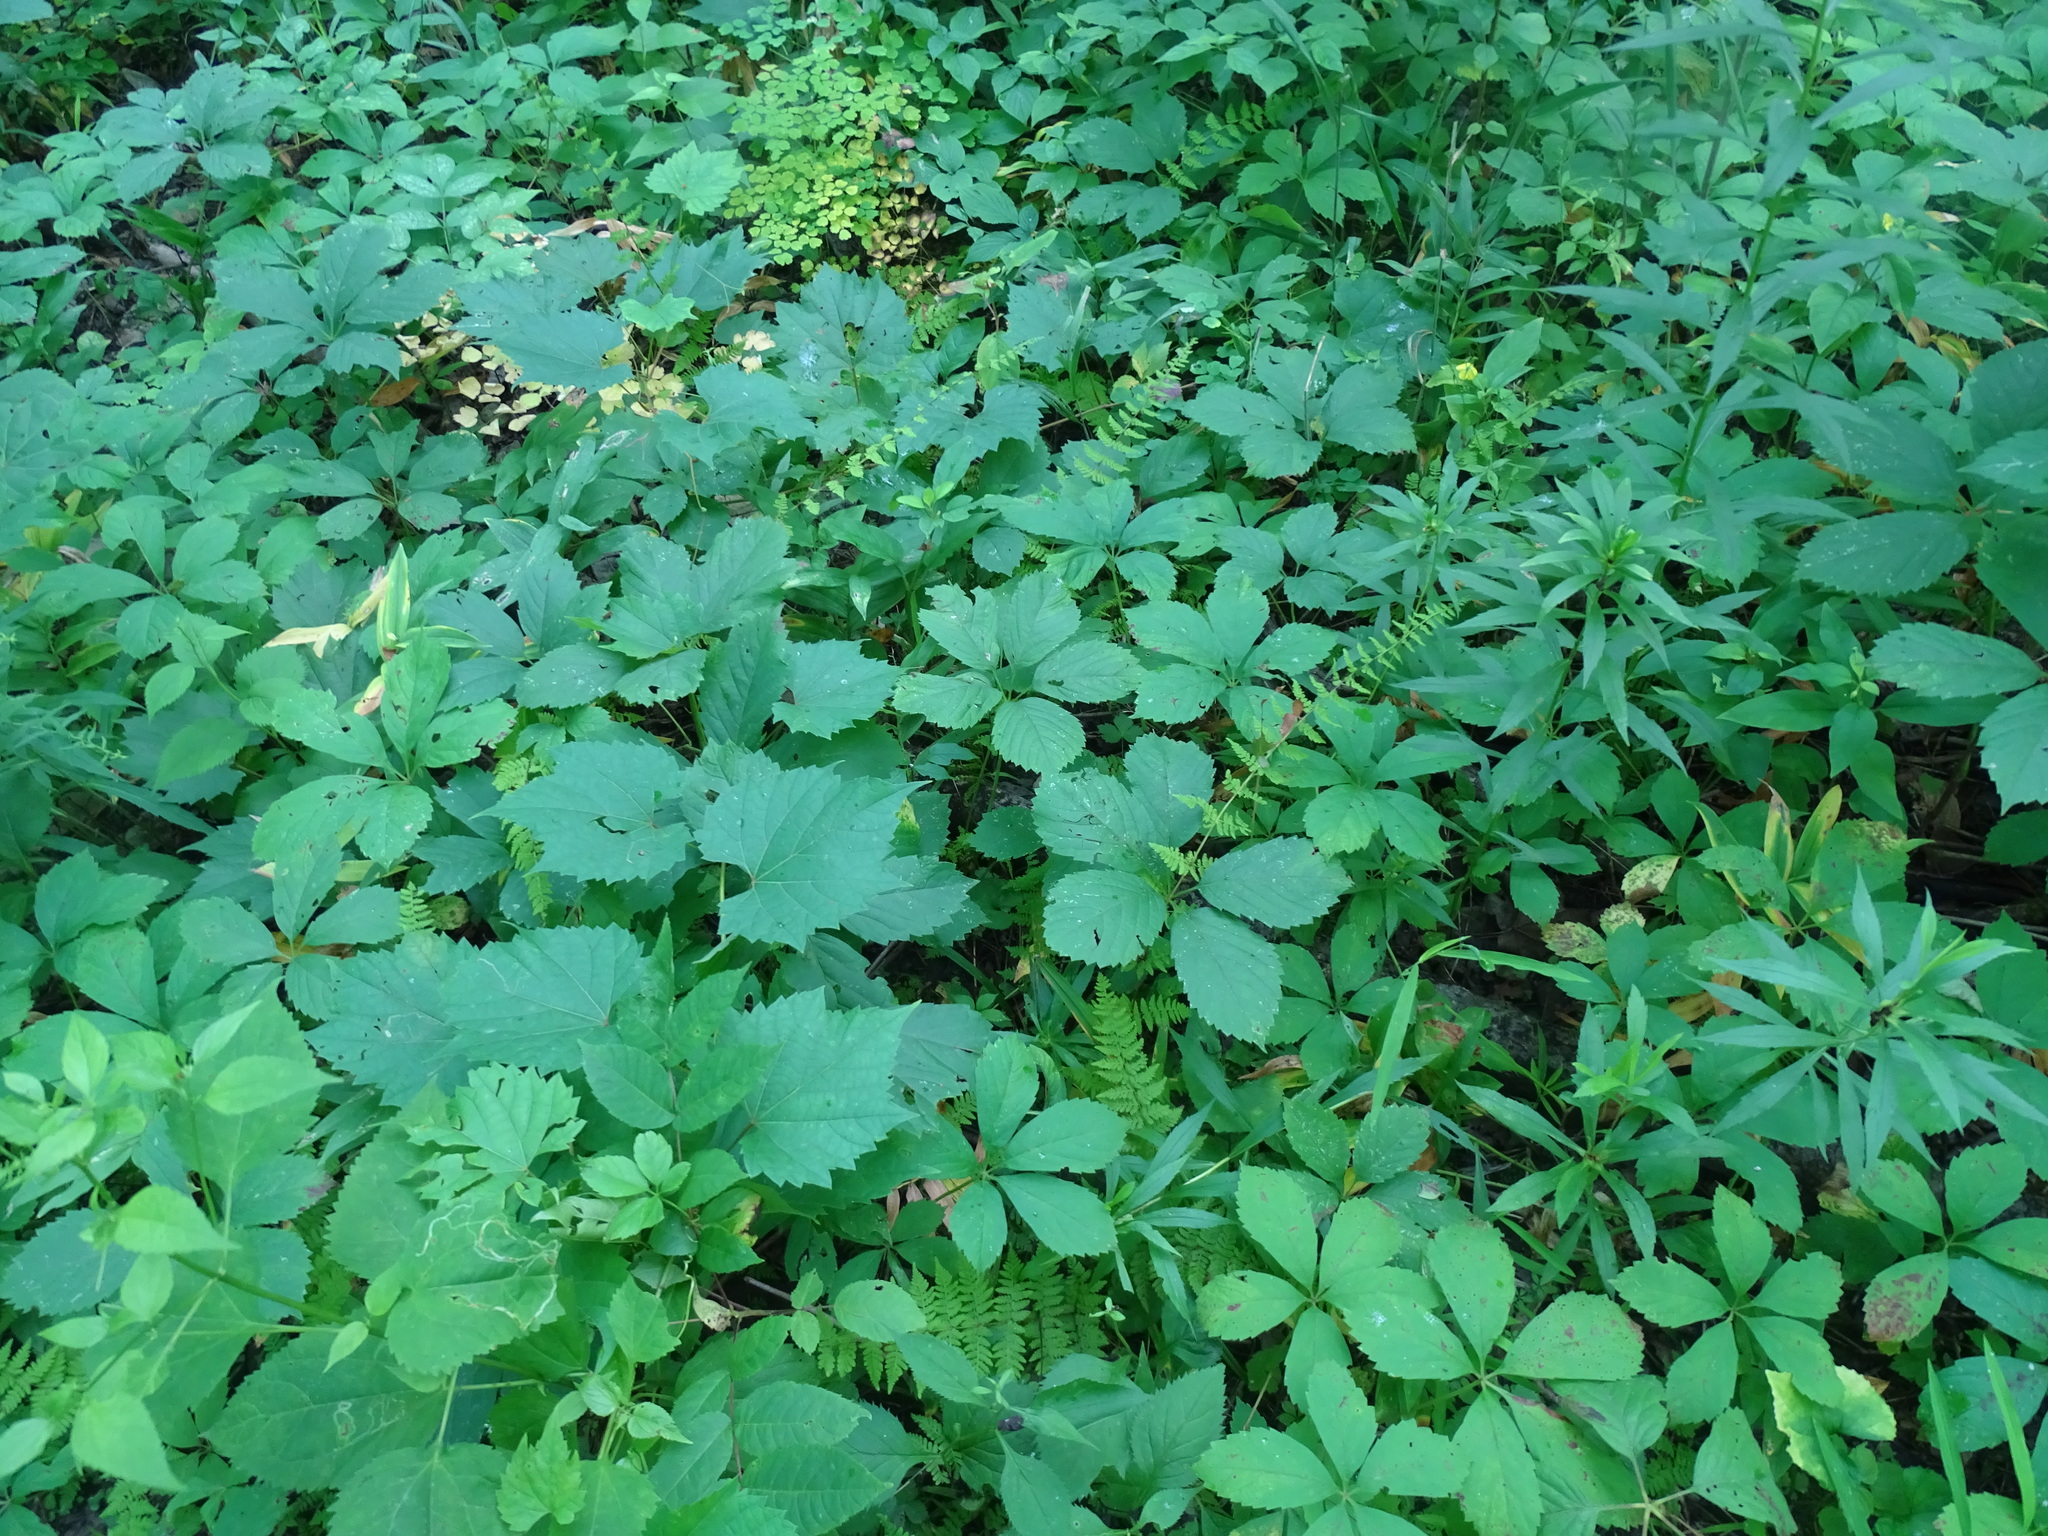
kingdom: Plantae
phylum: Tracheophyta
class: Polypodiopsida
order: Polypodiales
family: Cystopteridaceae
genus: Cystopteris
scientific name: Cystopteris bulbifera
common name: Bulblet bladder fern
